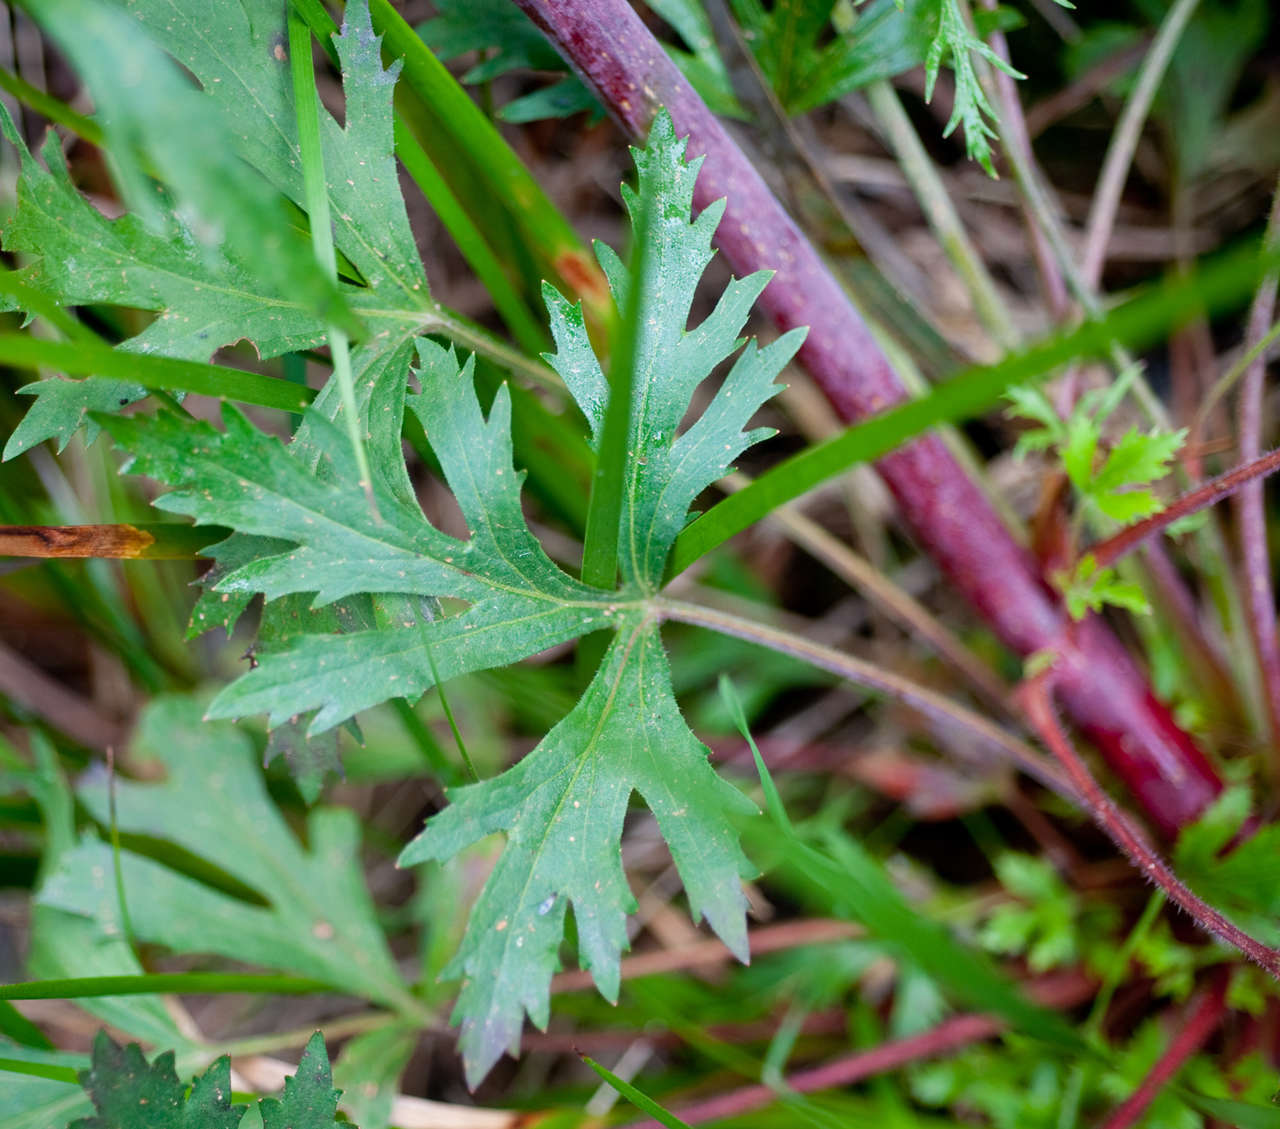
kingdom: Plantae
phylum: Tracheophyta
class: Magnoliopsida
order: Apiales
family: Araliaceae
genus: Trachymene
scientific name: Trachymene composita
